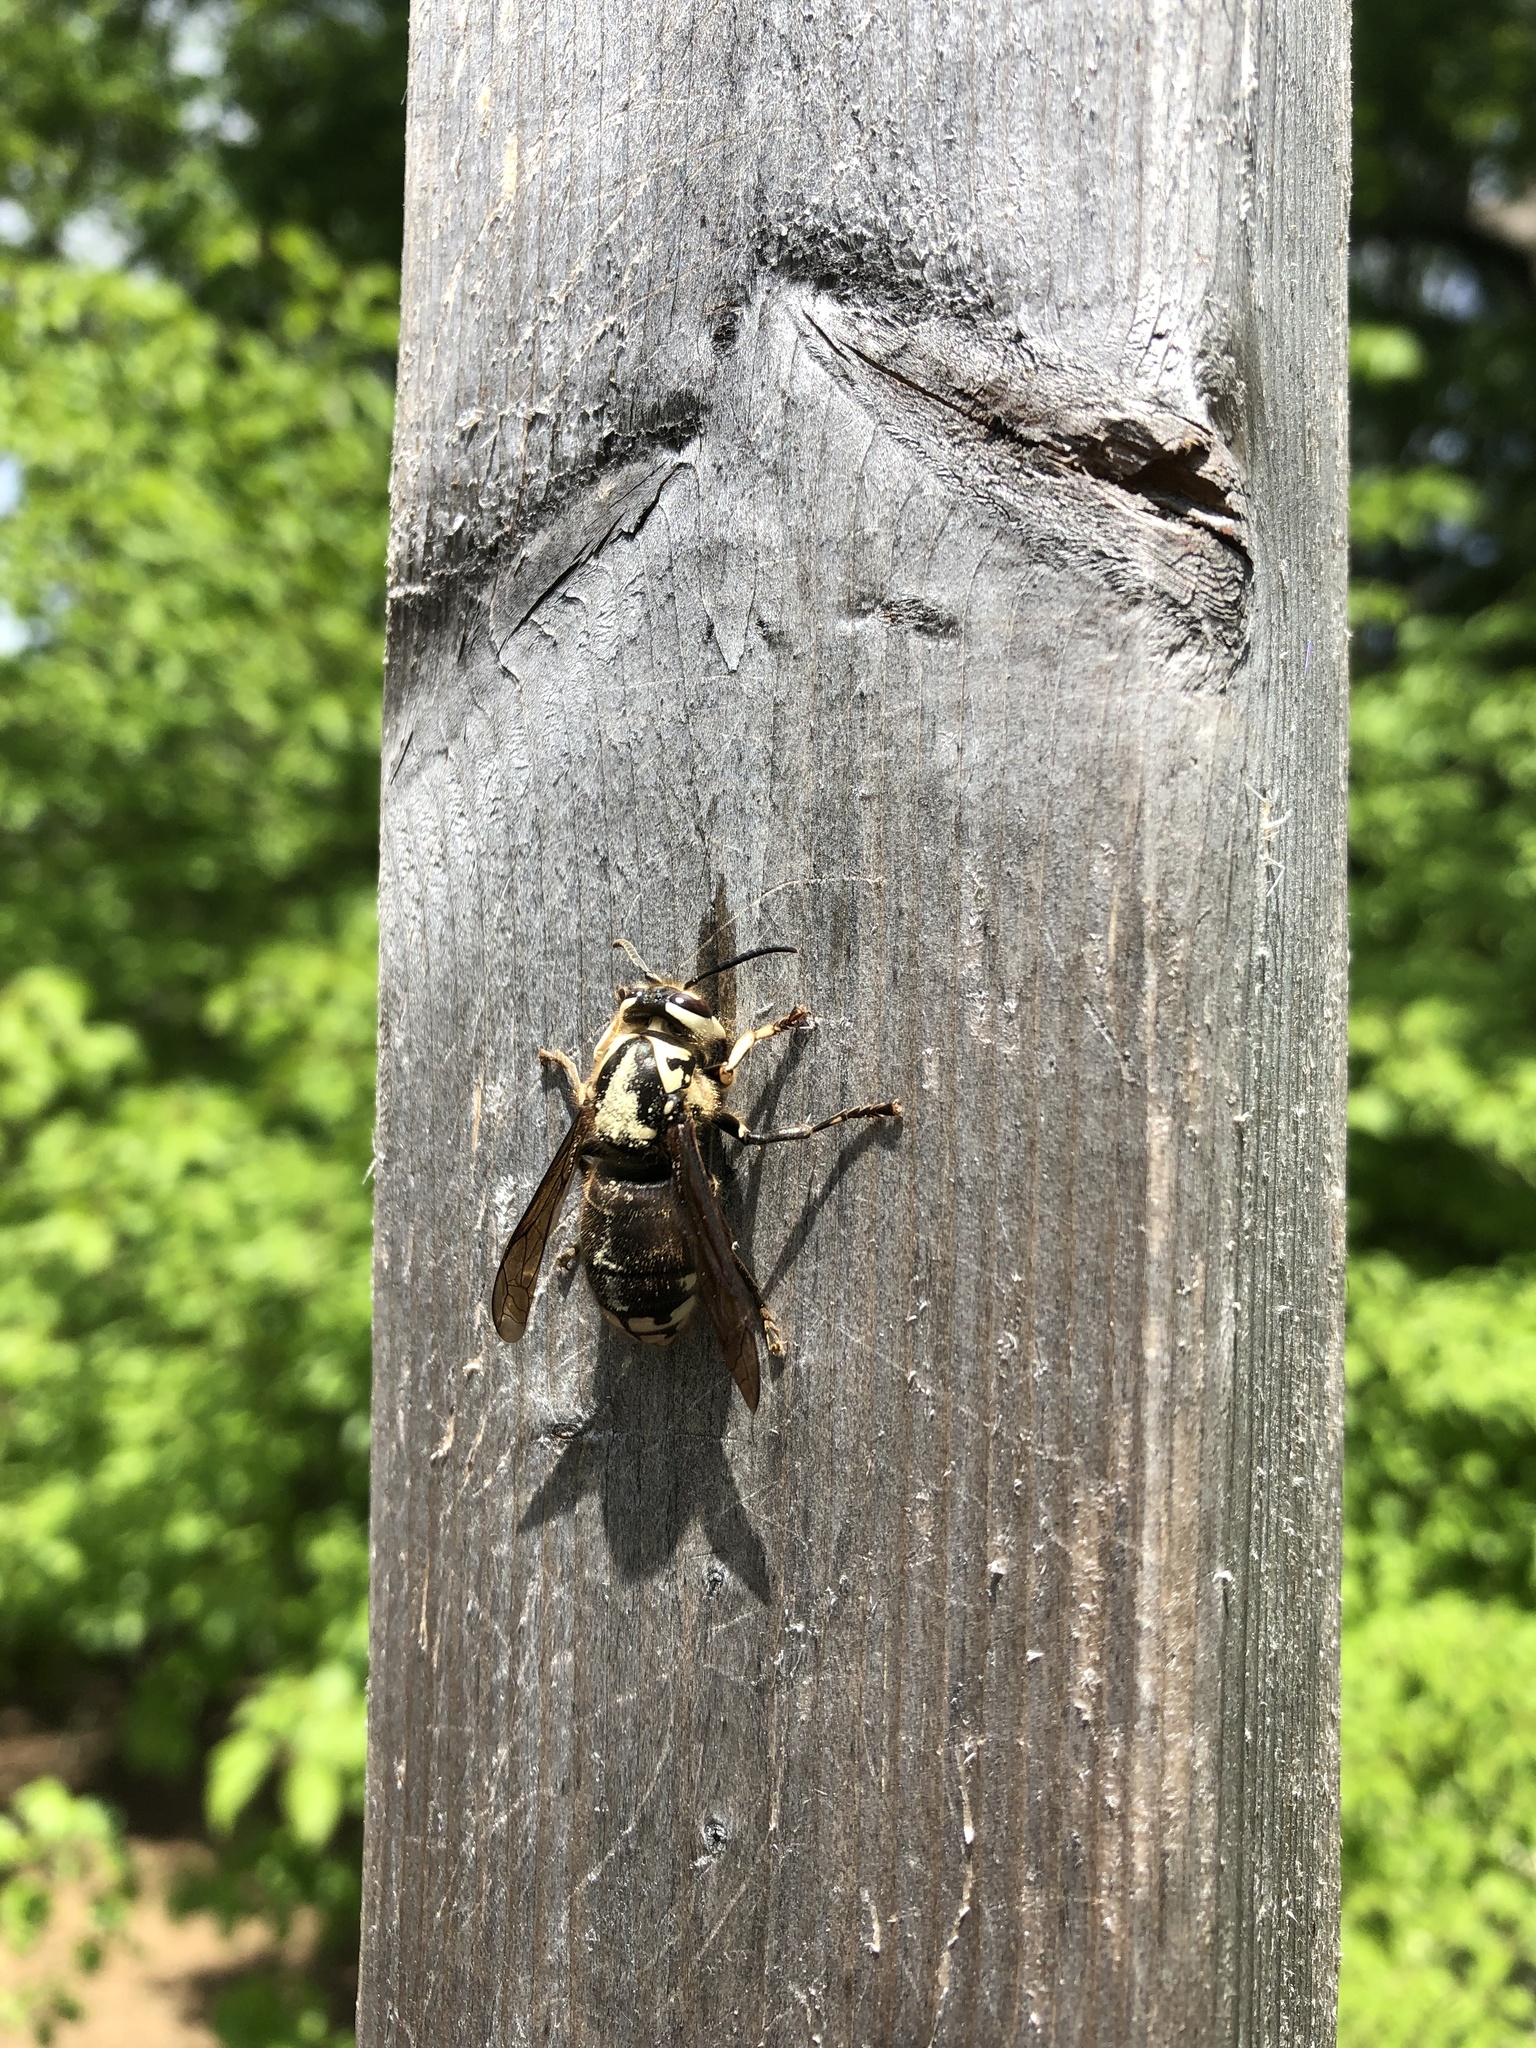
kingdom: Animalia
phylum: Arthropoda
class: Insecta
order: Hymenoptera
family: Vespidae
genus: Dolichovespula
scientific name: Dolichovespula maculata
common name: Bald-faced hornet
